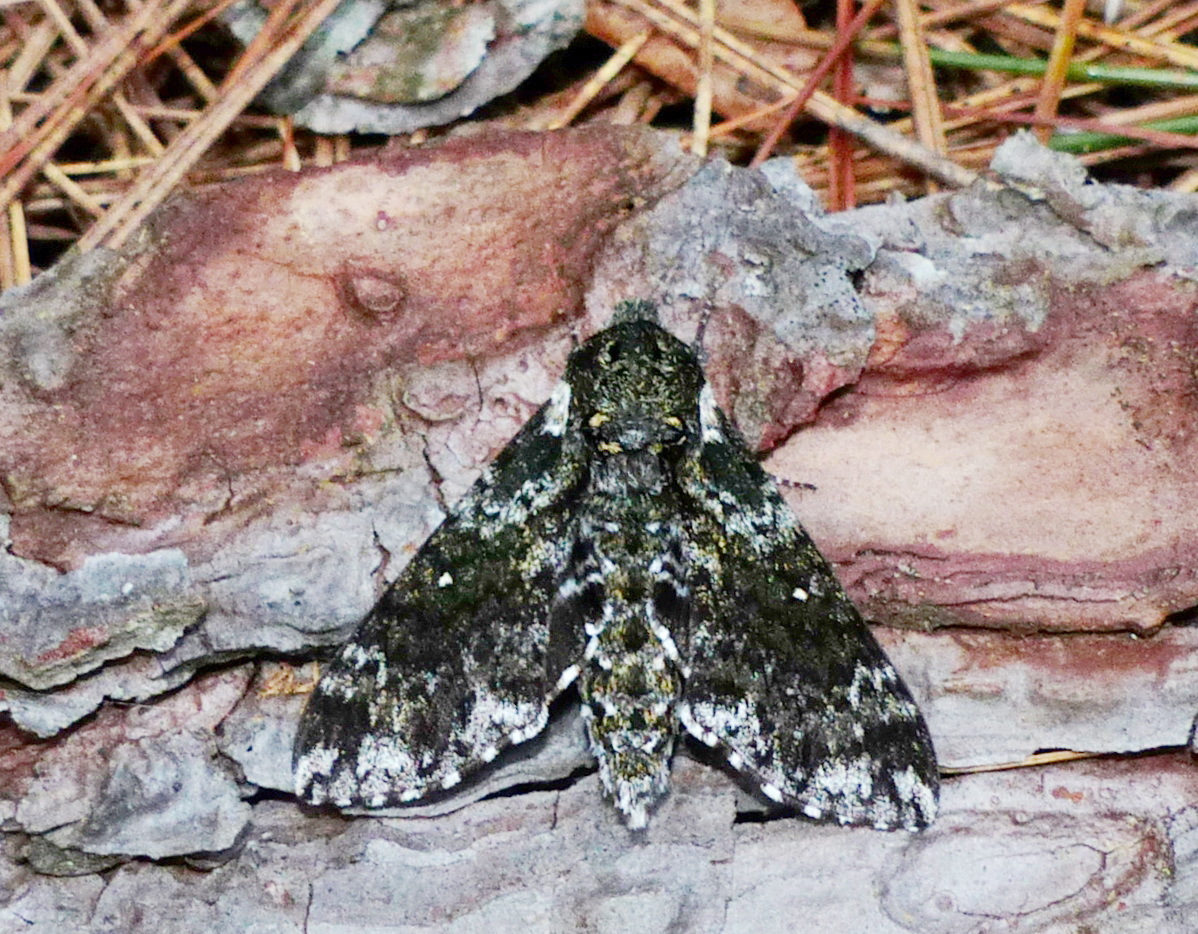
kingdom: Animalia
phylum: Arthropoda
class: Insecta
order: Lepidoptera
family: Sphingidae
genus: Dolba
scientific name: Dolba hyloeus
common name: Pawpaw sphinx
